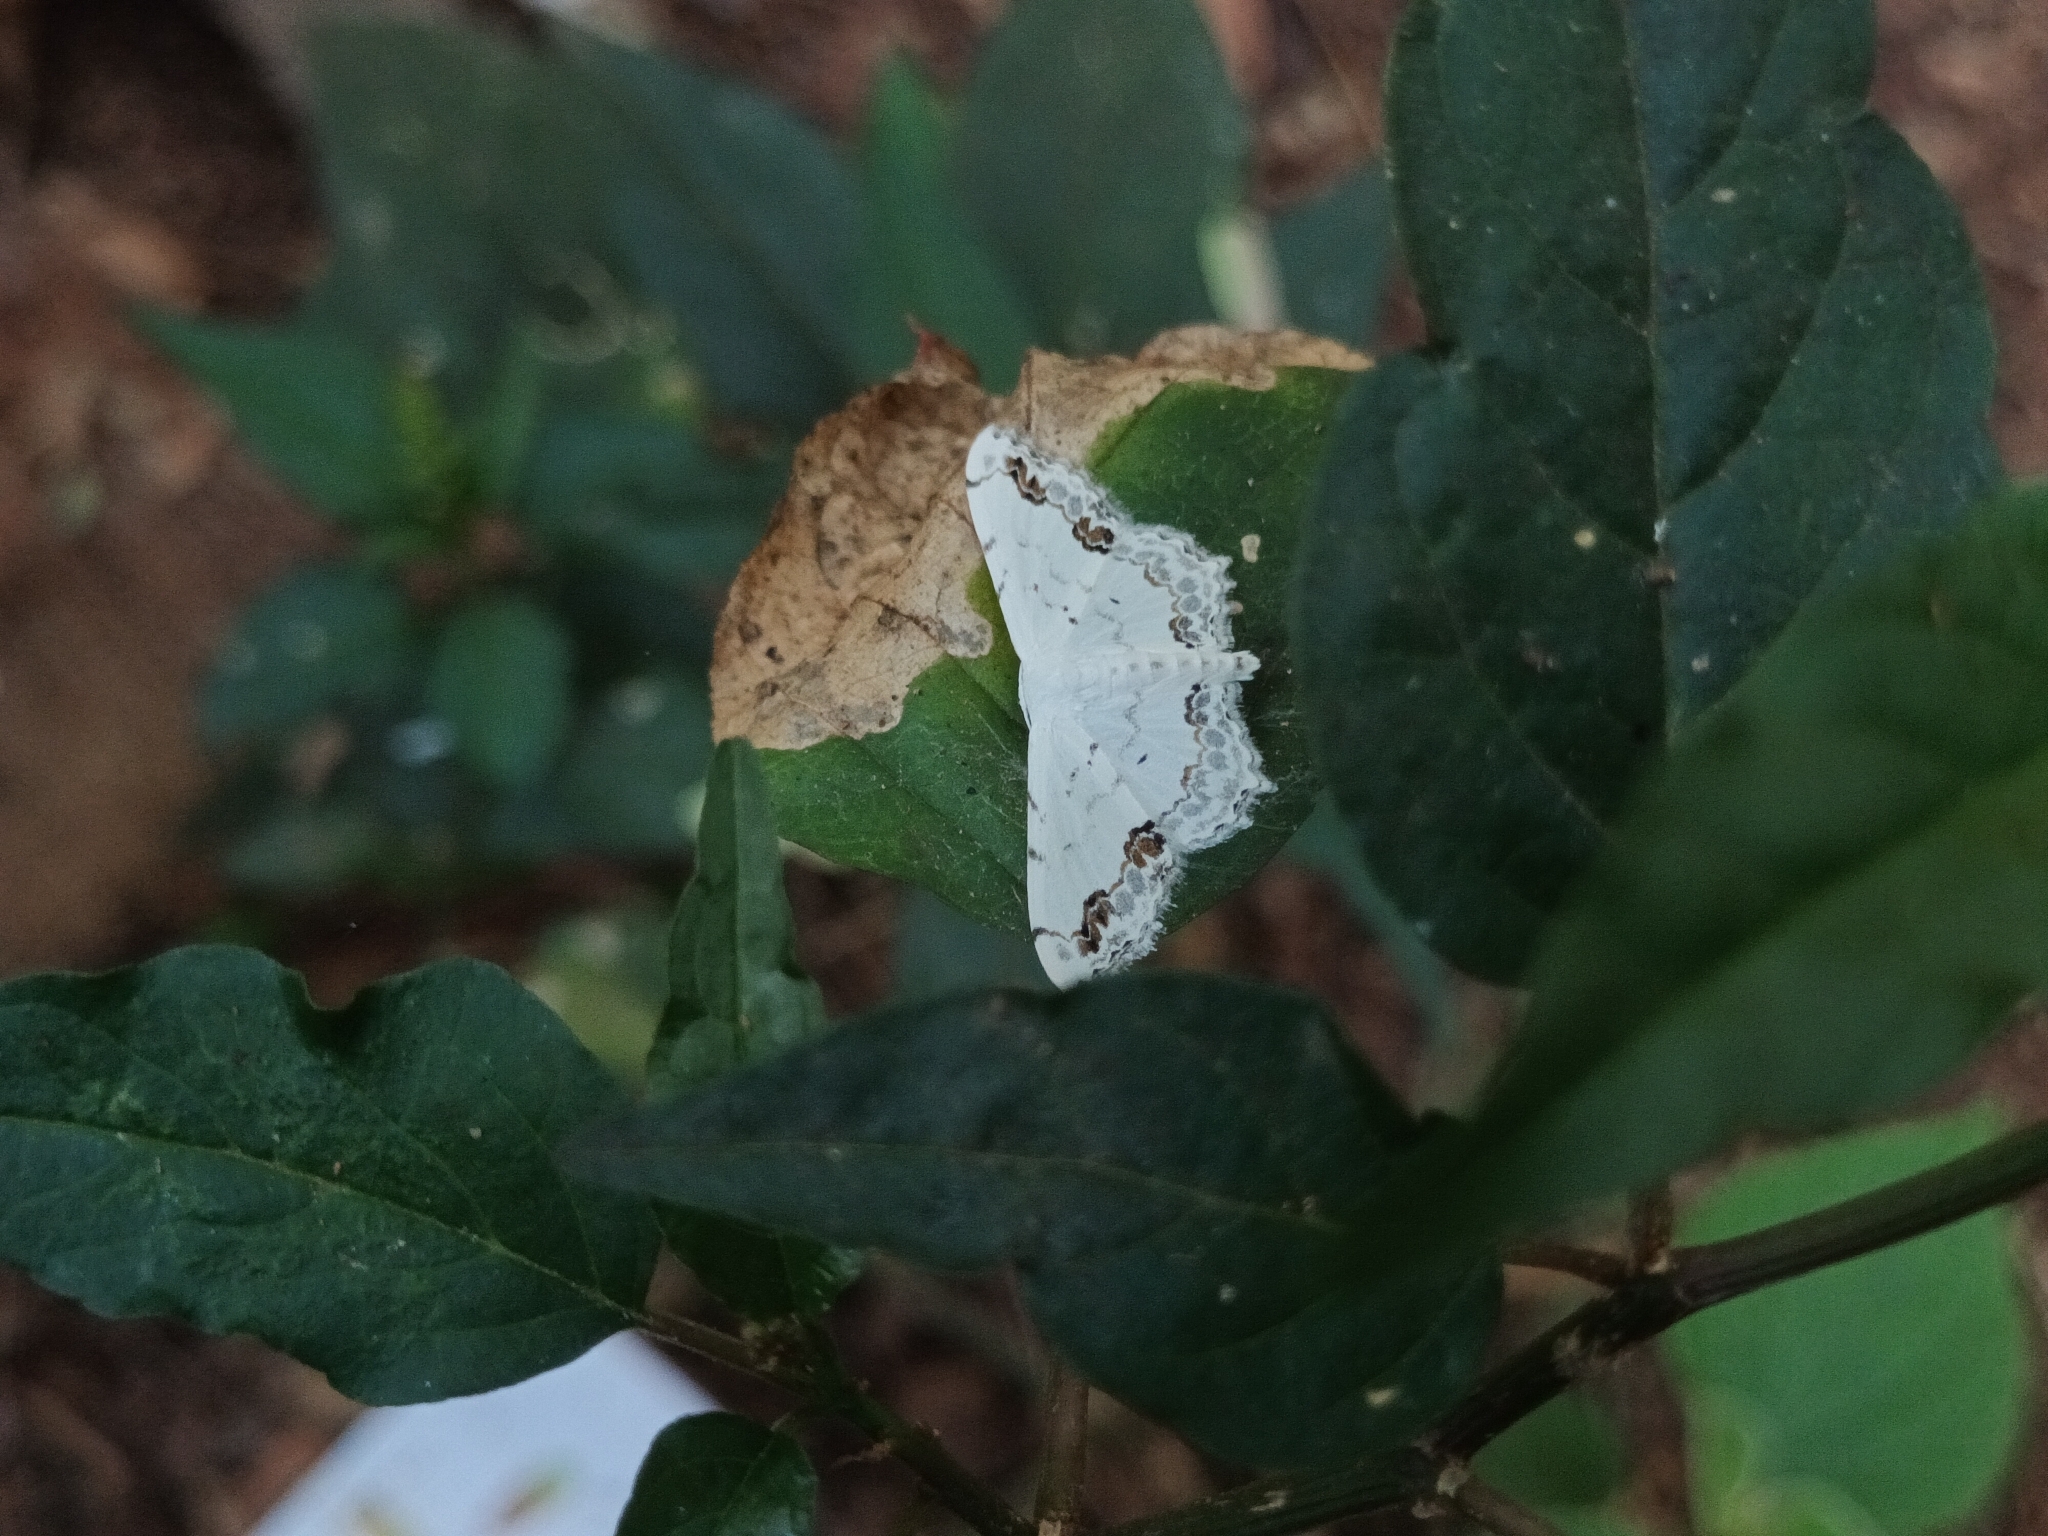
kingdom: Animalia
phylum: Arthropoda
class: Insecta
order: Lepidoptera
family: Geometridae
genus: Scopula
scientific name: Scopula pulchellata
